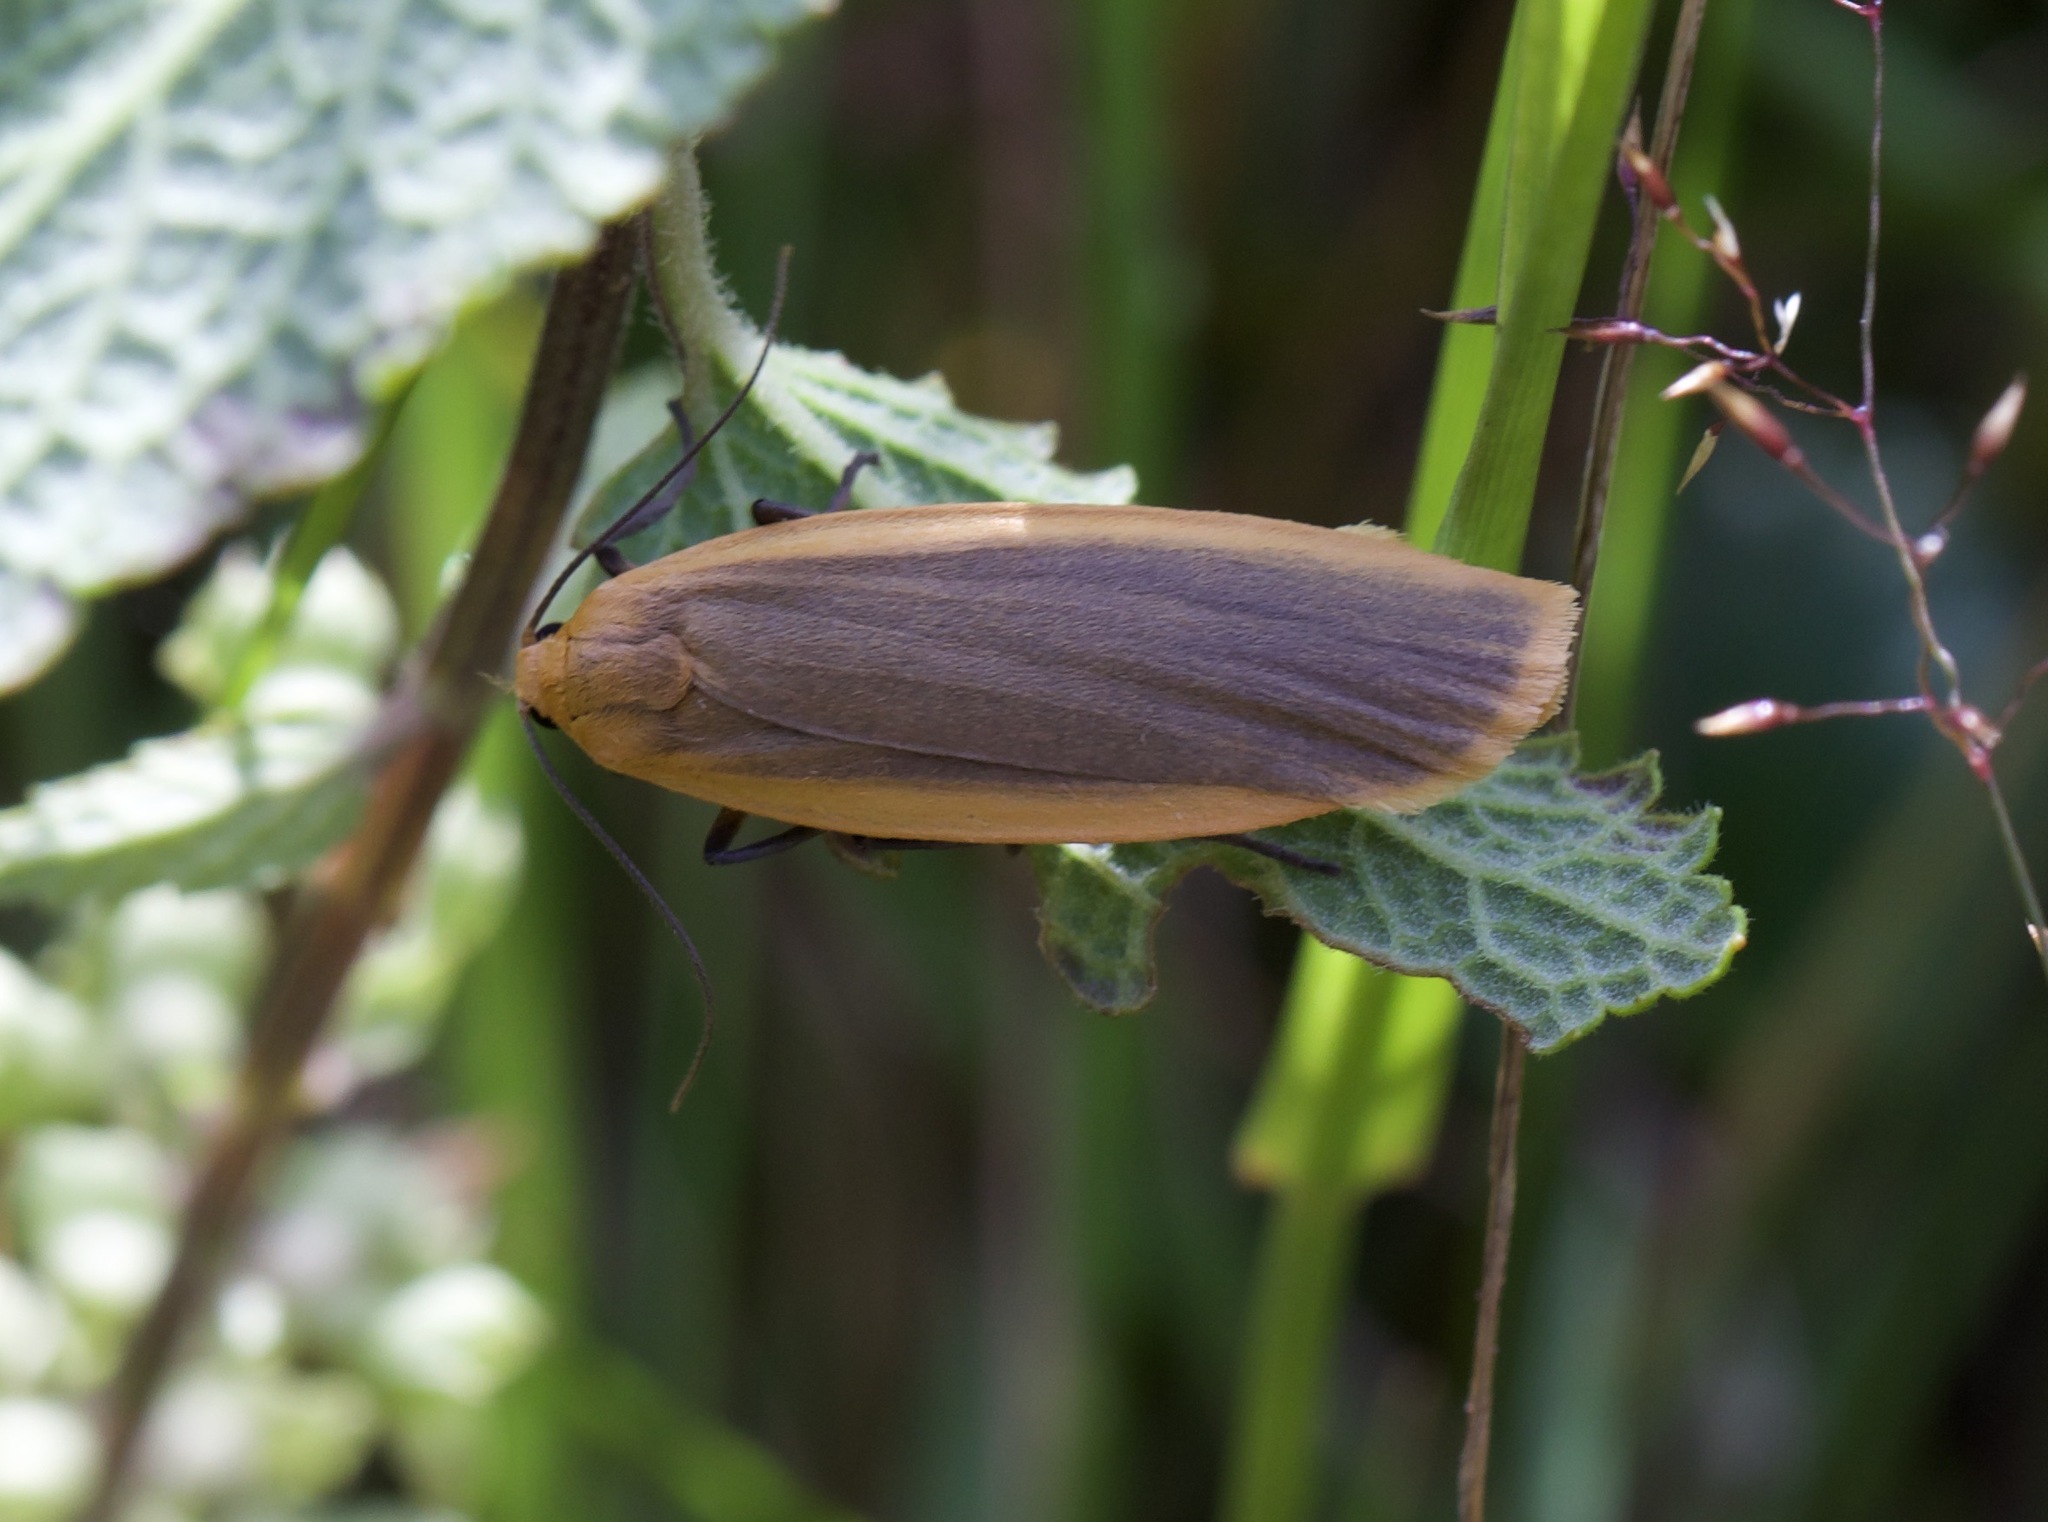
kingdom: Animalia
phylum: Arthropoda
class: Insecta
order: Lepidoptera
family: Erebidae
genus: Collita
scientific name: Collita griseola
